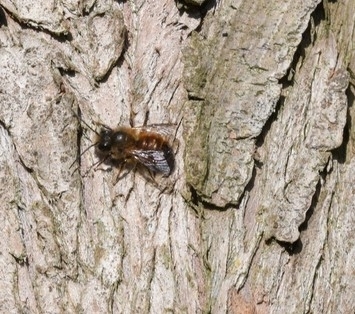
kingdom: Animalia
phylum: Arthropoda
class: Insecta
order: Hymenoptera
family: Megachilidae
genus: Osmia
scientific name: Osmia bicornis
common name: Red mason bee
